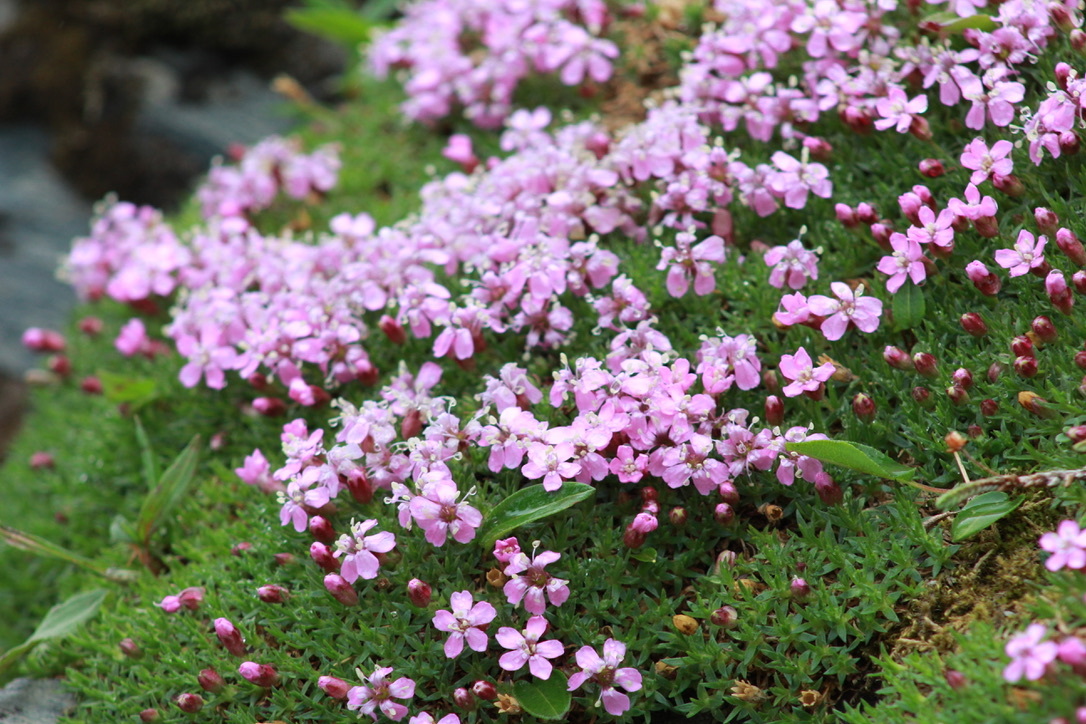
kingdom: Plantae
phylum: Tracheophyta
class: Magnoliopsida
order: Caryophyllales
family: Caryophyllaceae
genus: Silene
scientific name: Silene acaulis
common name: Moss campion
